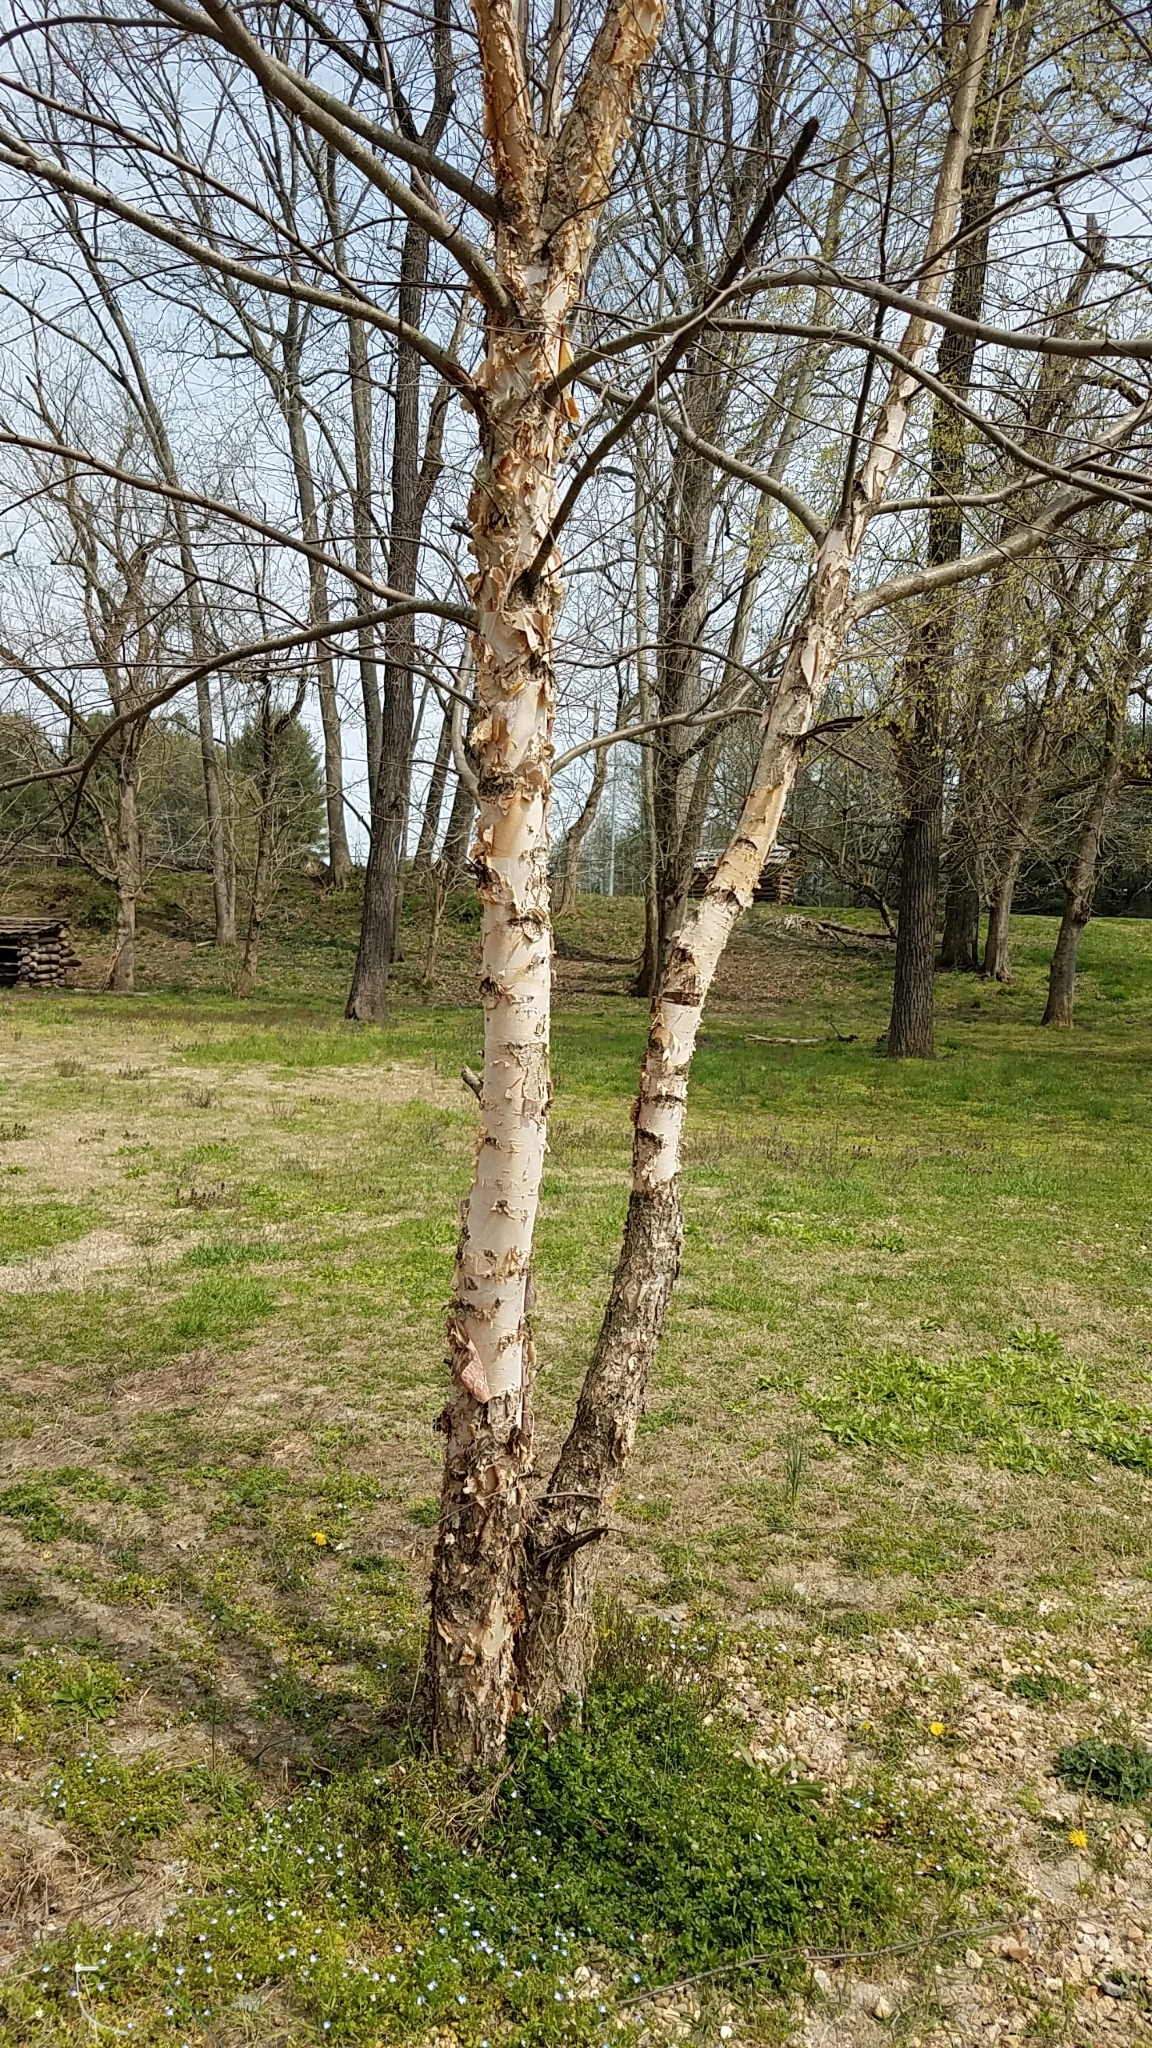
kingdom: Plantae
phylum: Tracheophyta
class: Magnoliopsida
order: Fagales
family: Betulaceae
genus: Betula
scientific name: Betula nigra
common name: Black birch
